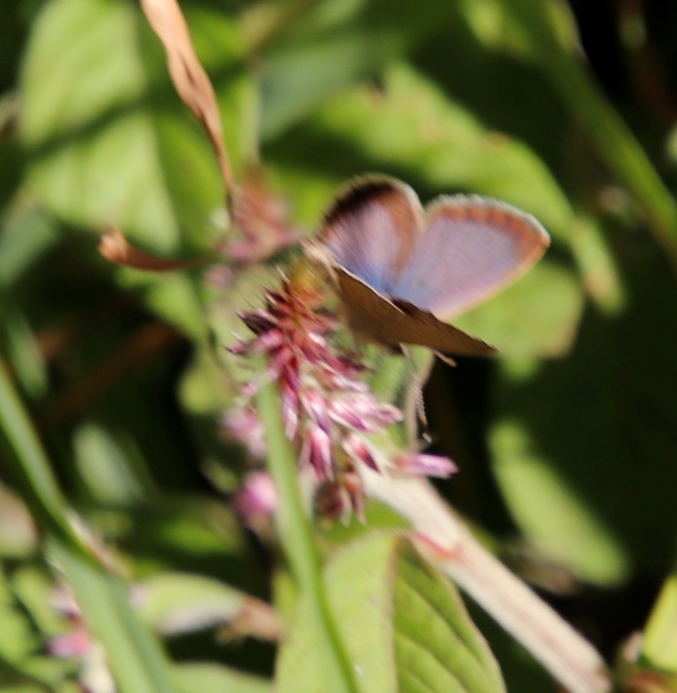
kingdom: Animalia
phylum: Arthropoda
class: Insecta
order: Lepidoptera
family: Lycaenidae
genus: Zizeeria
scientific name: Zizeeria knysna
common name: African grass blue
